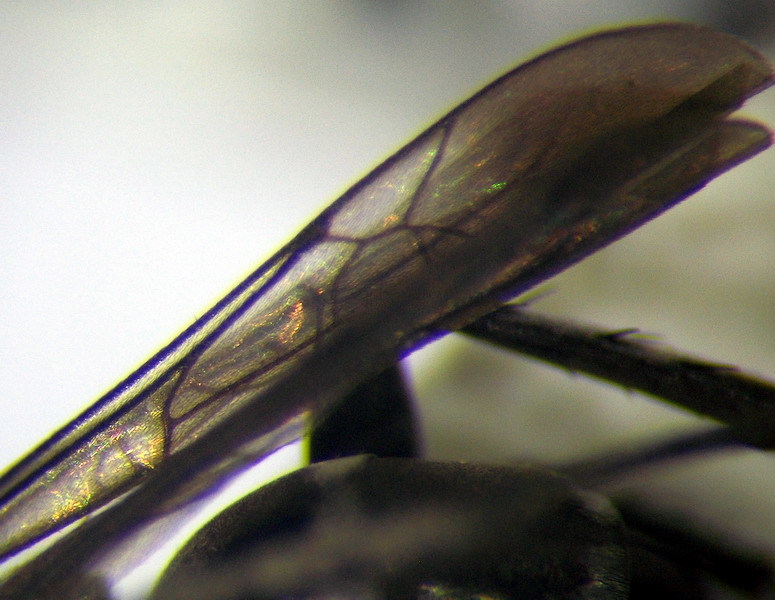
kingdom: Animalia
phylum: Arthropoda
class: Insecta
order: Hymenoptera
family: Pompilidae
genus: Aporinellus
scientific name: Aporinellus sexmaculatus
